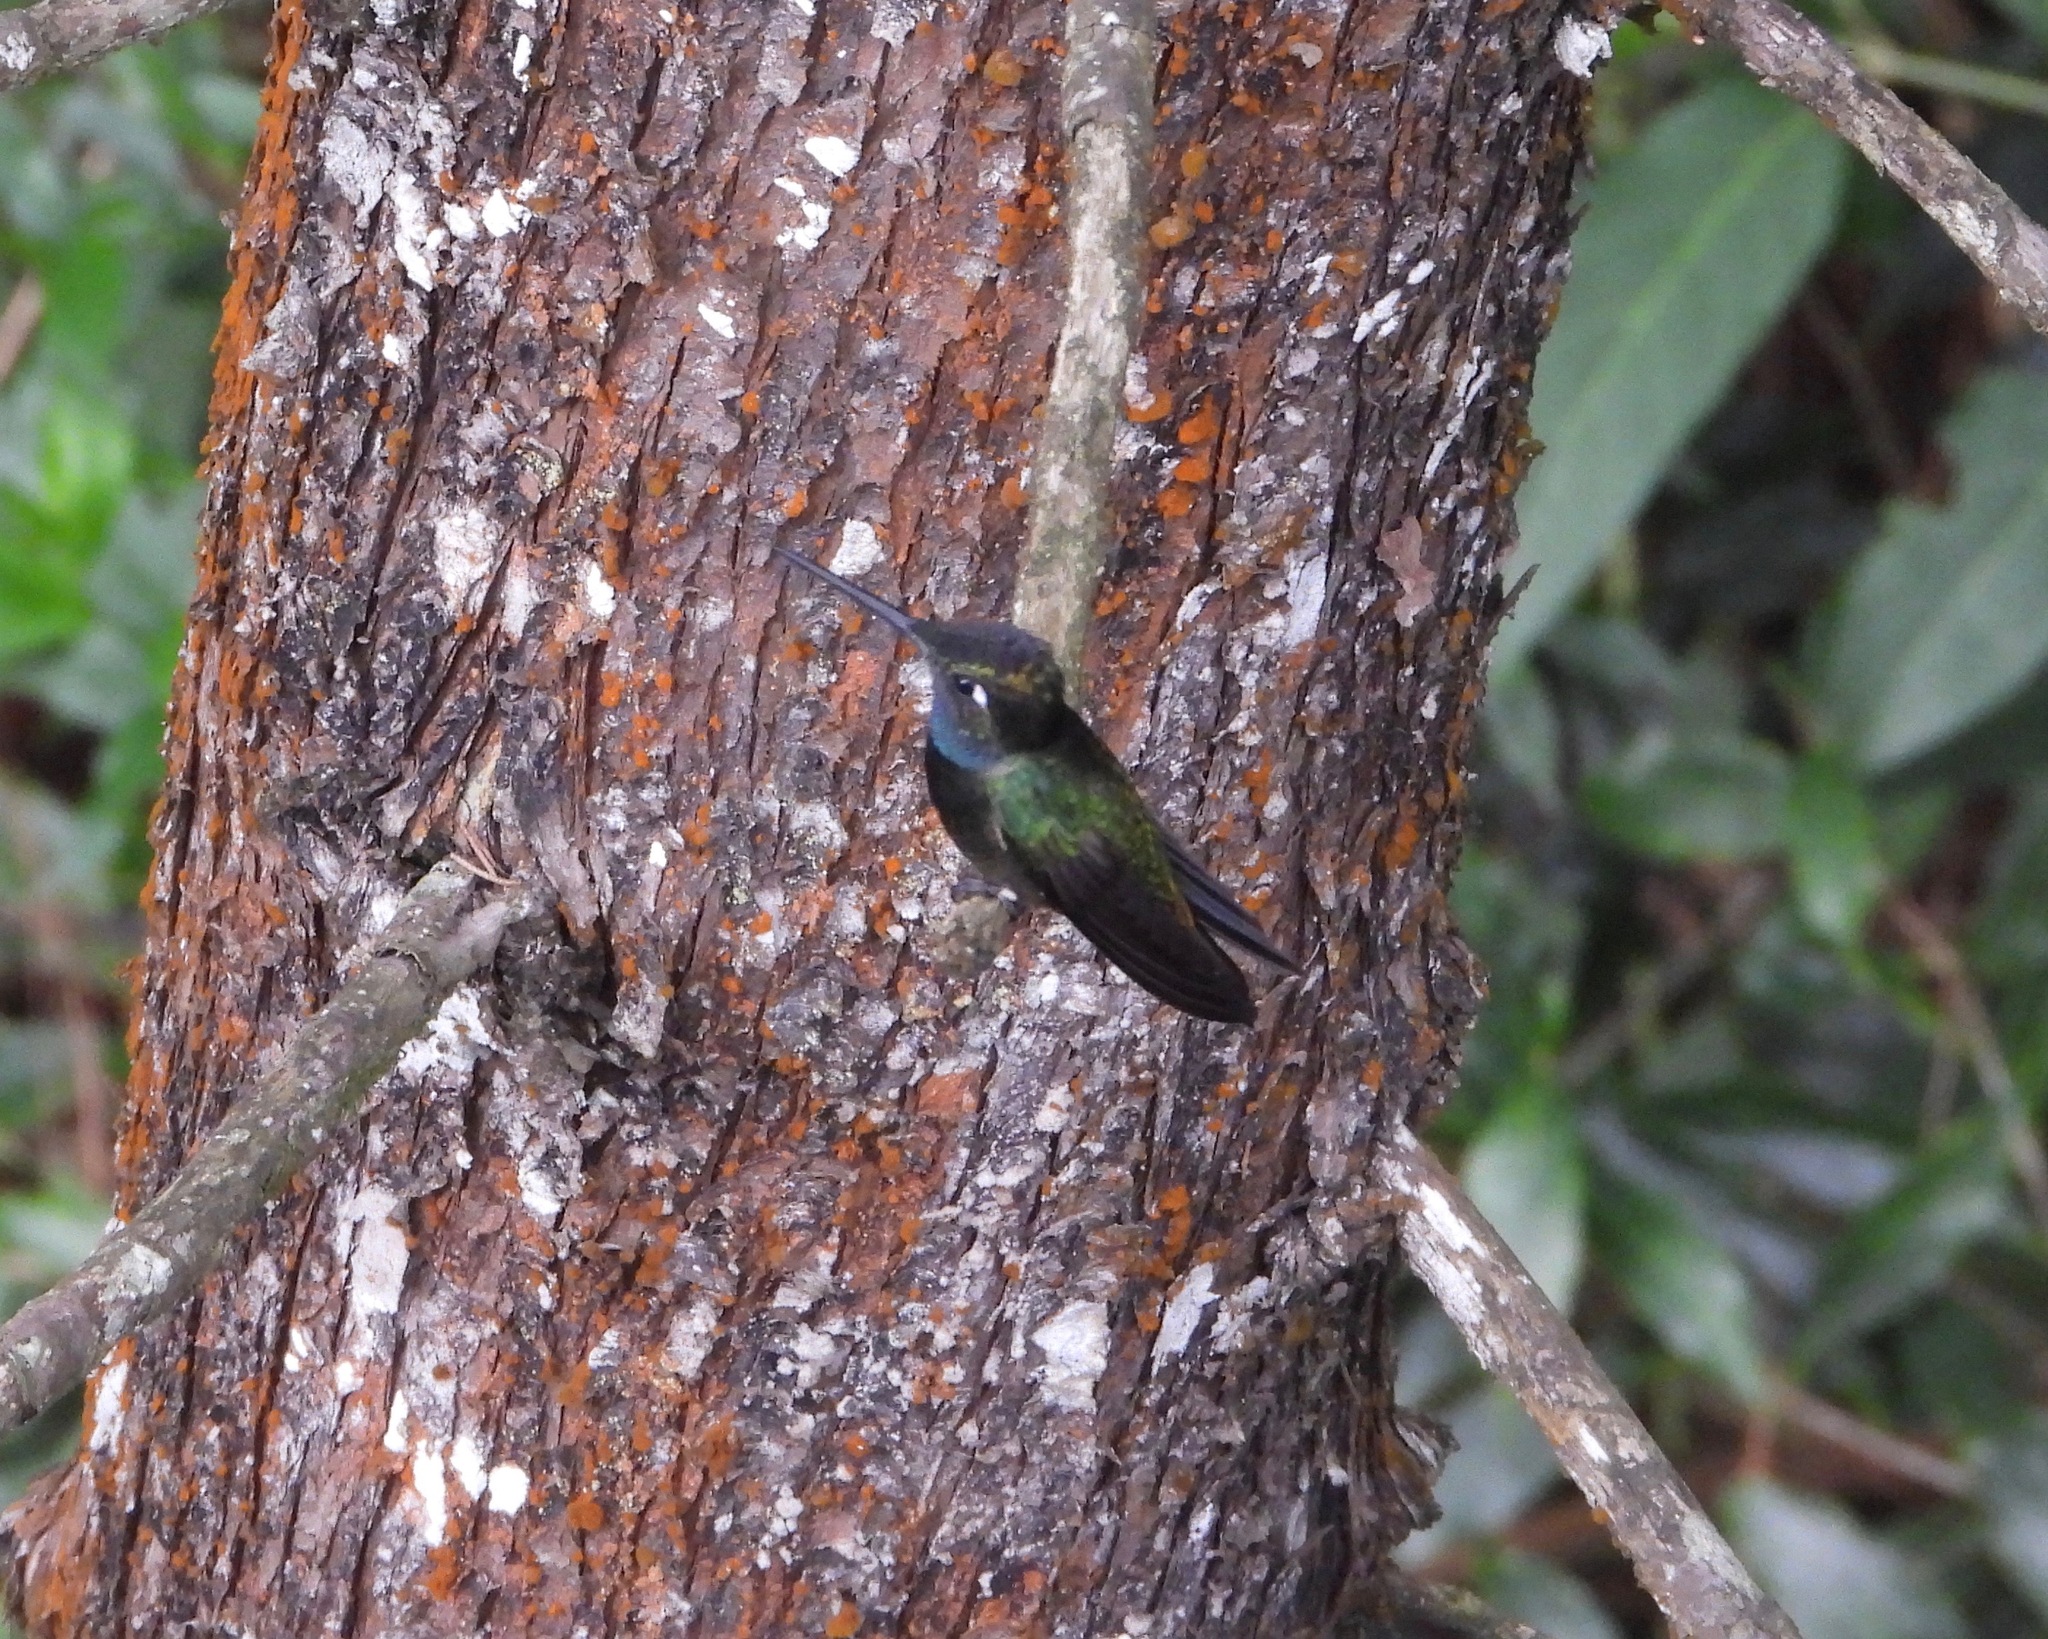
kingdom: Animalia
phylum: Chordata
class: Aves
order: Apodiformes
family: Trochilidae
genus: Eugenes
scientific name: Eugenes fulgens
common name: Magnificent hummingbird
